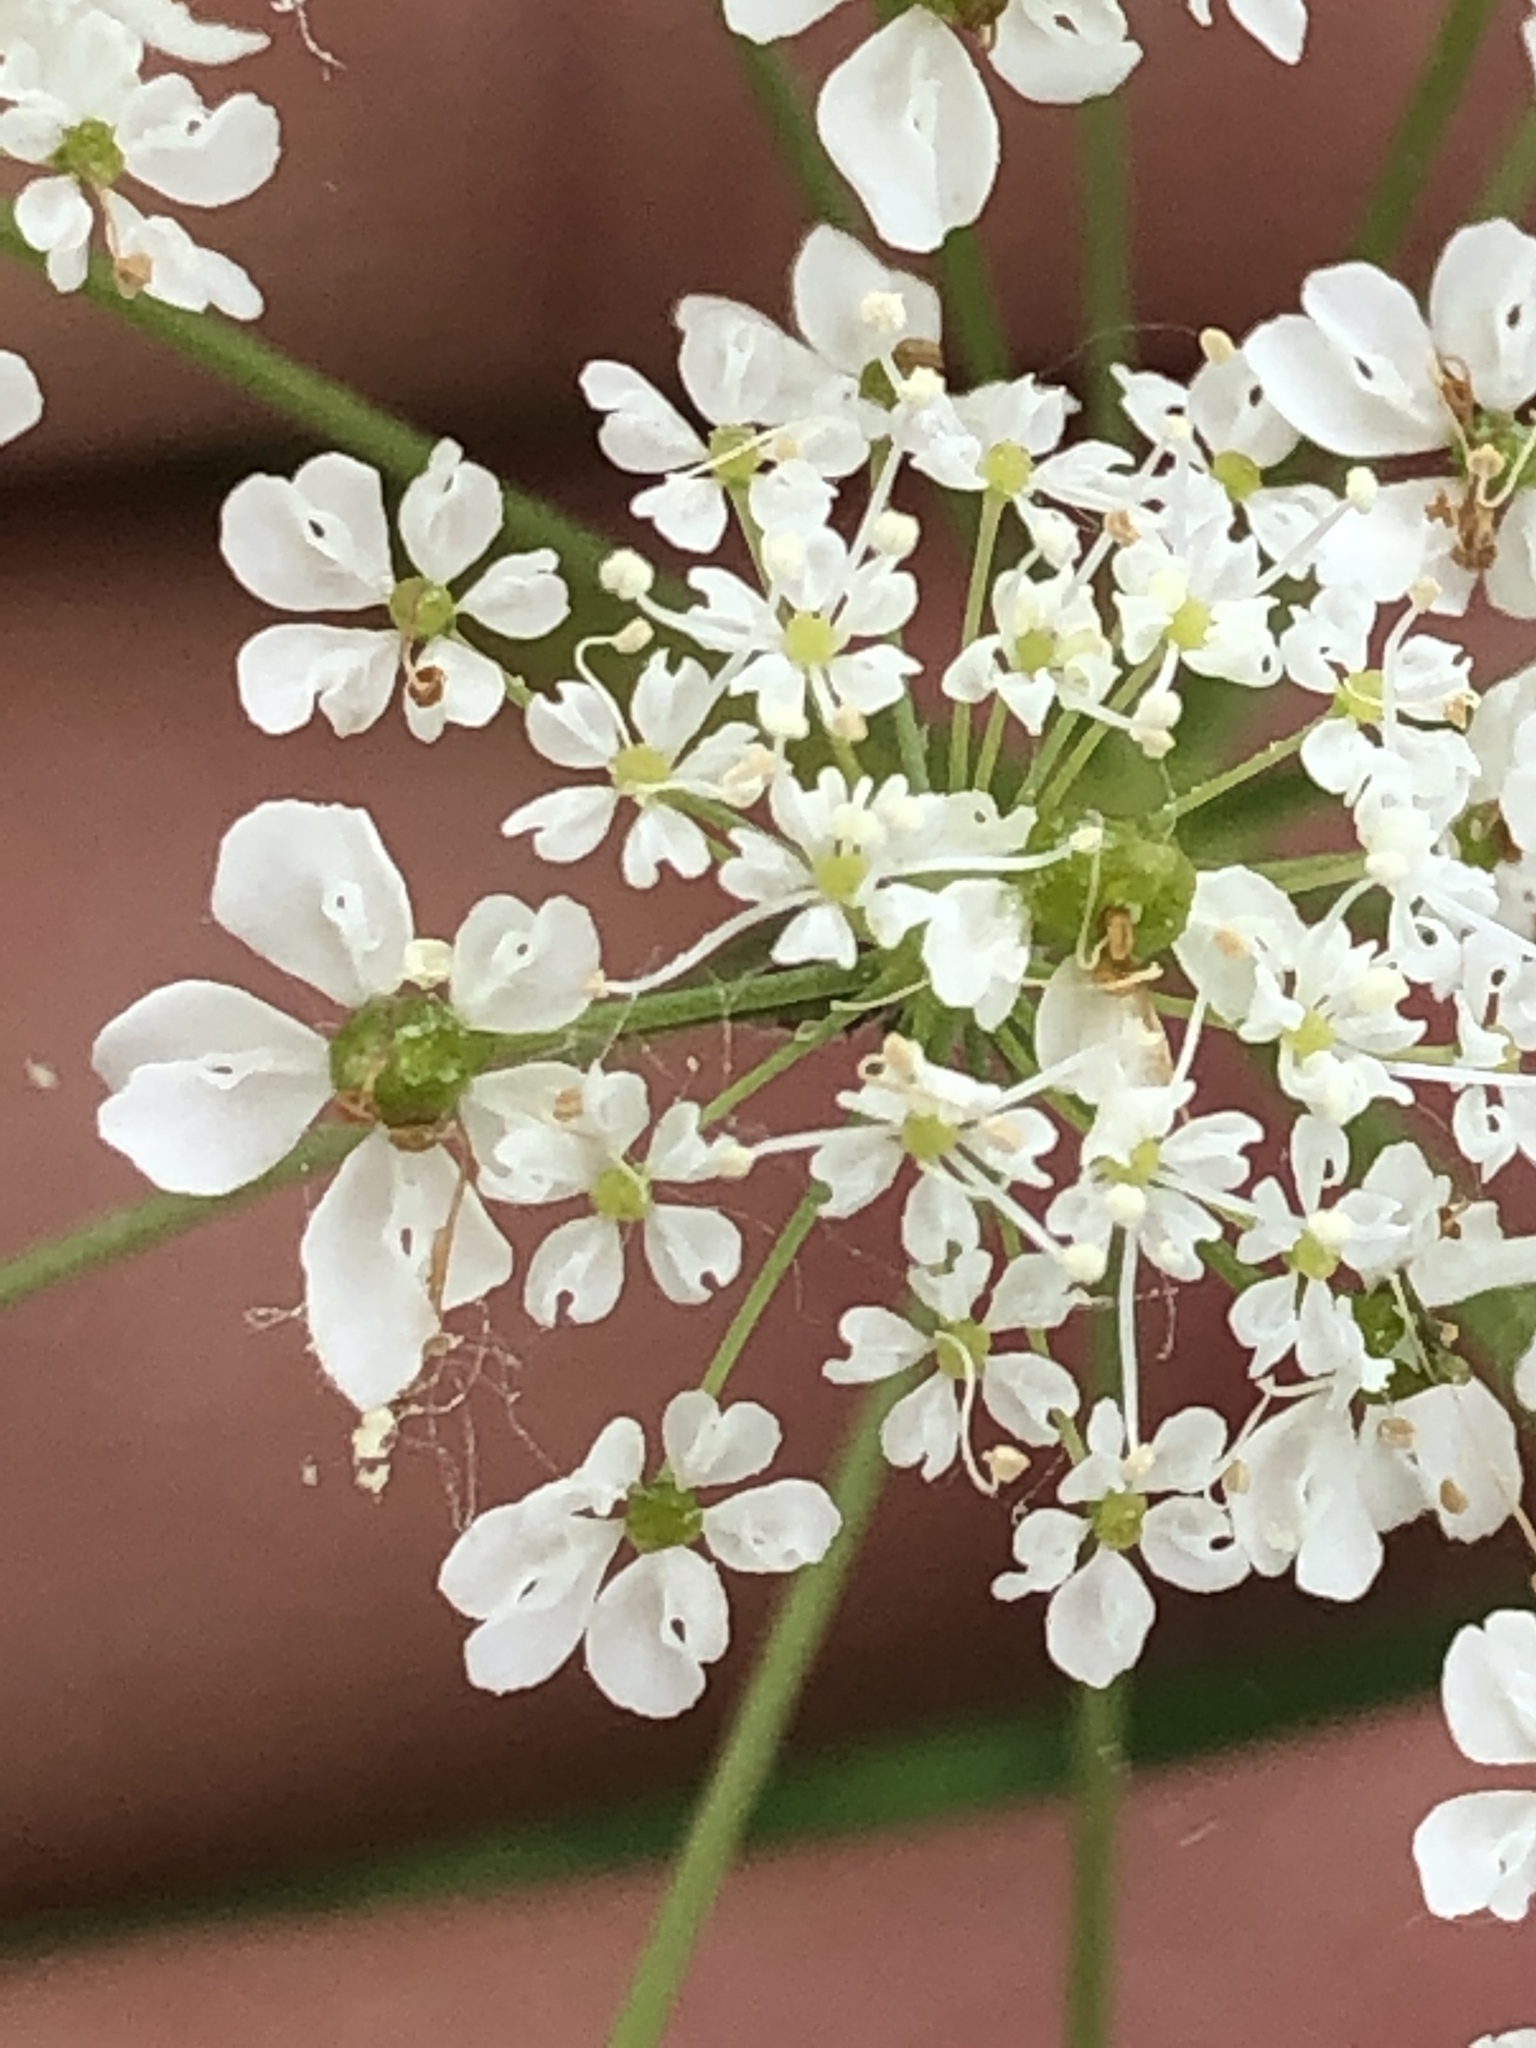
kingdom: Plantae
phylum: Tracheophyta
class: Magnoliopsida
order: Apiales
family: Apiaceae
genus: Chaerophyllum
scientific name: Chaerophyllum aureum
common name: Golden chervil
